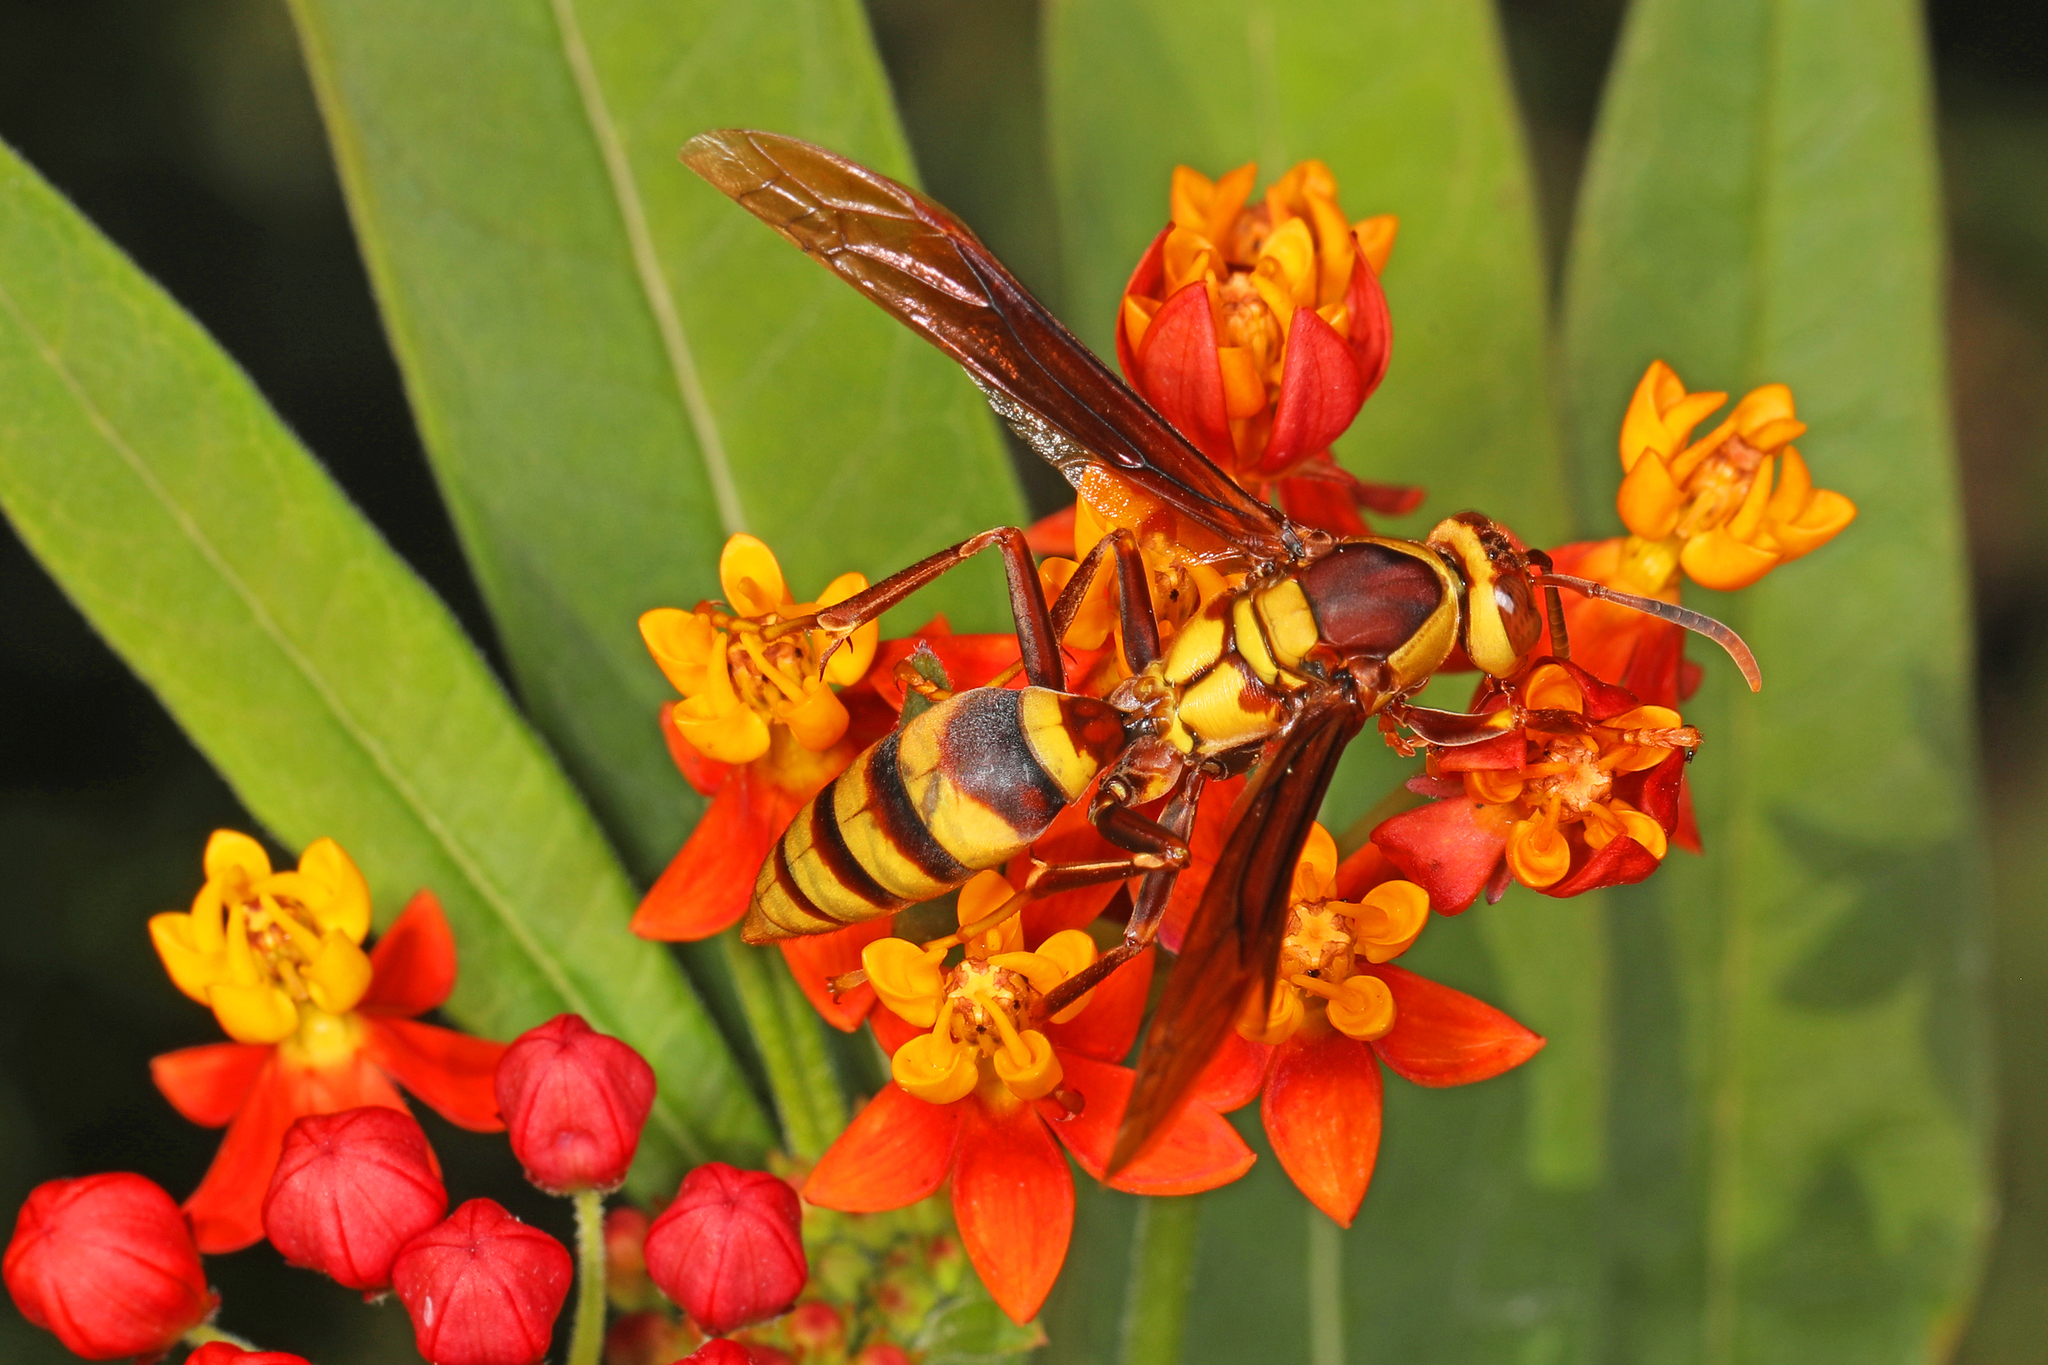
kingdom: Animalia
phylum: Arthropoda
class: Insecta
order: Hymenoptera
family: Eumenidae
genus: Polistes
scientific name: Polistes major
